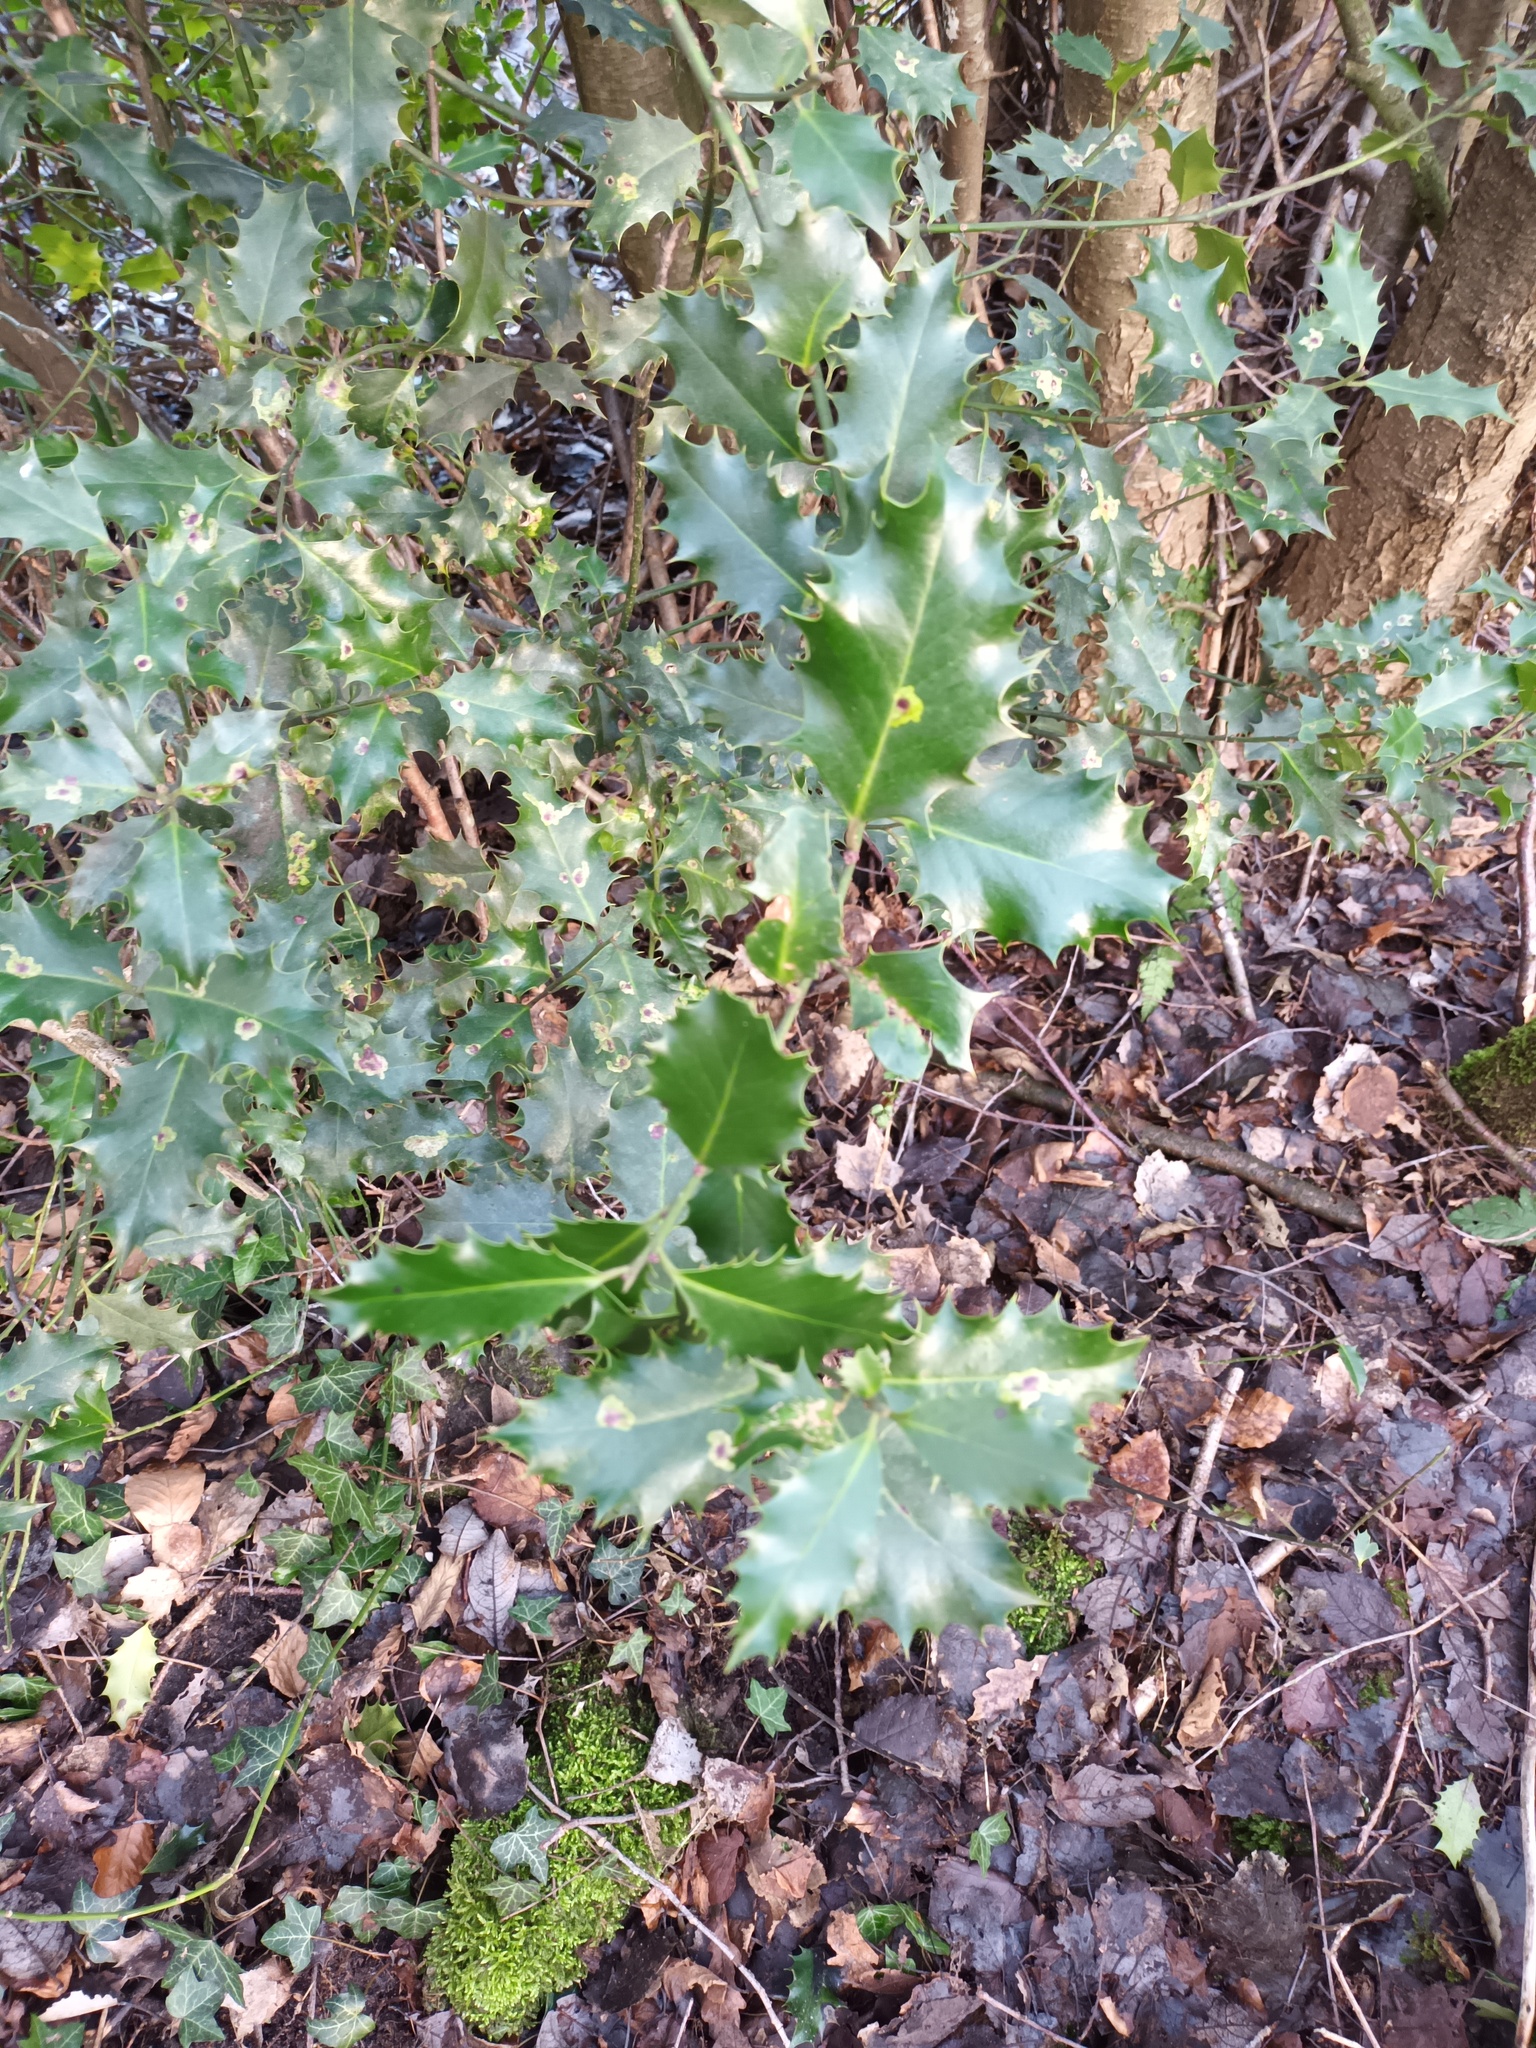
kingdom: Plantae
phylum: Tracheophyta
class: Magnoliopsida
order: Aquifoliales
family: Aquifoliaceae
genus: Ilex
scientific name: Ilex aquifolium
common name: English holly
